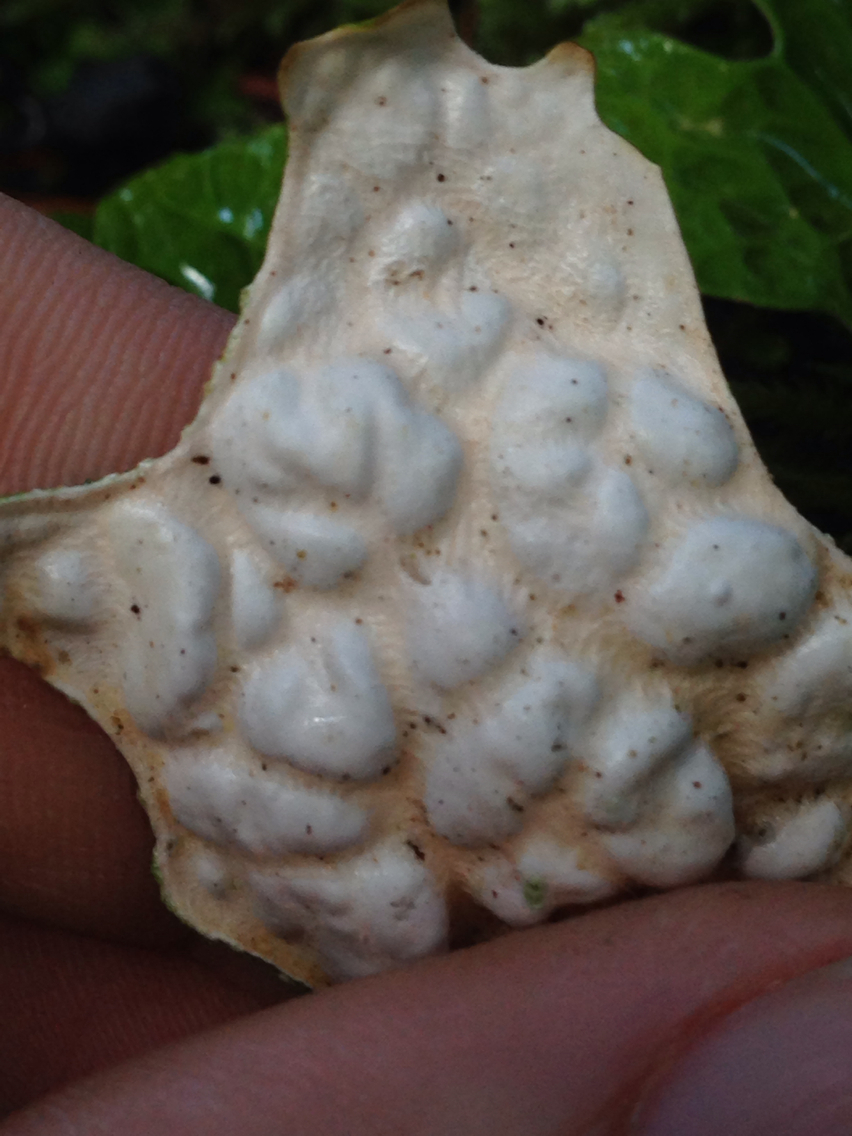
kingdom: Fungi
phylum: Ascomycota
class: Lecanoromycetes
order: Peltigerales
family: Lobariaceae
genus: Lobaria
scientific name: Lobaria pulmonaria
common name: Lungwort
